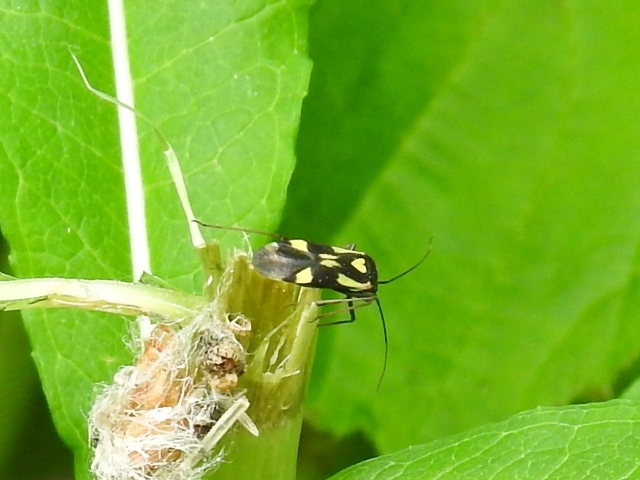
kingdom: Animalia
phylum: Arthropoda
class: Insecta
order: Hemiptera
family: Miridae
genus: Grypocoris
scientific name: Grypocoris sexguttatus
